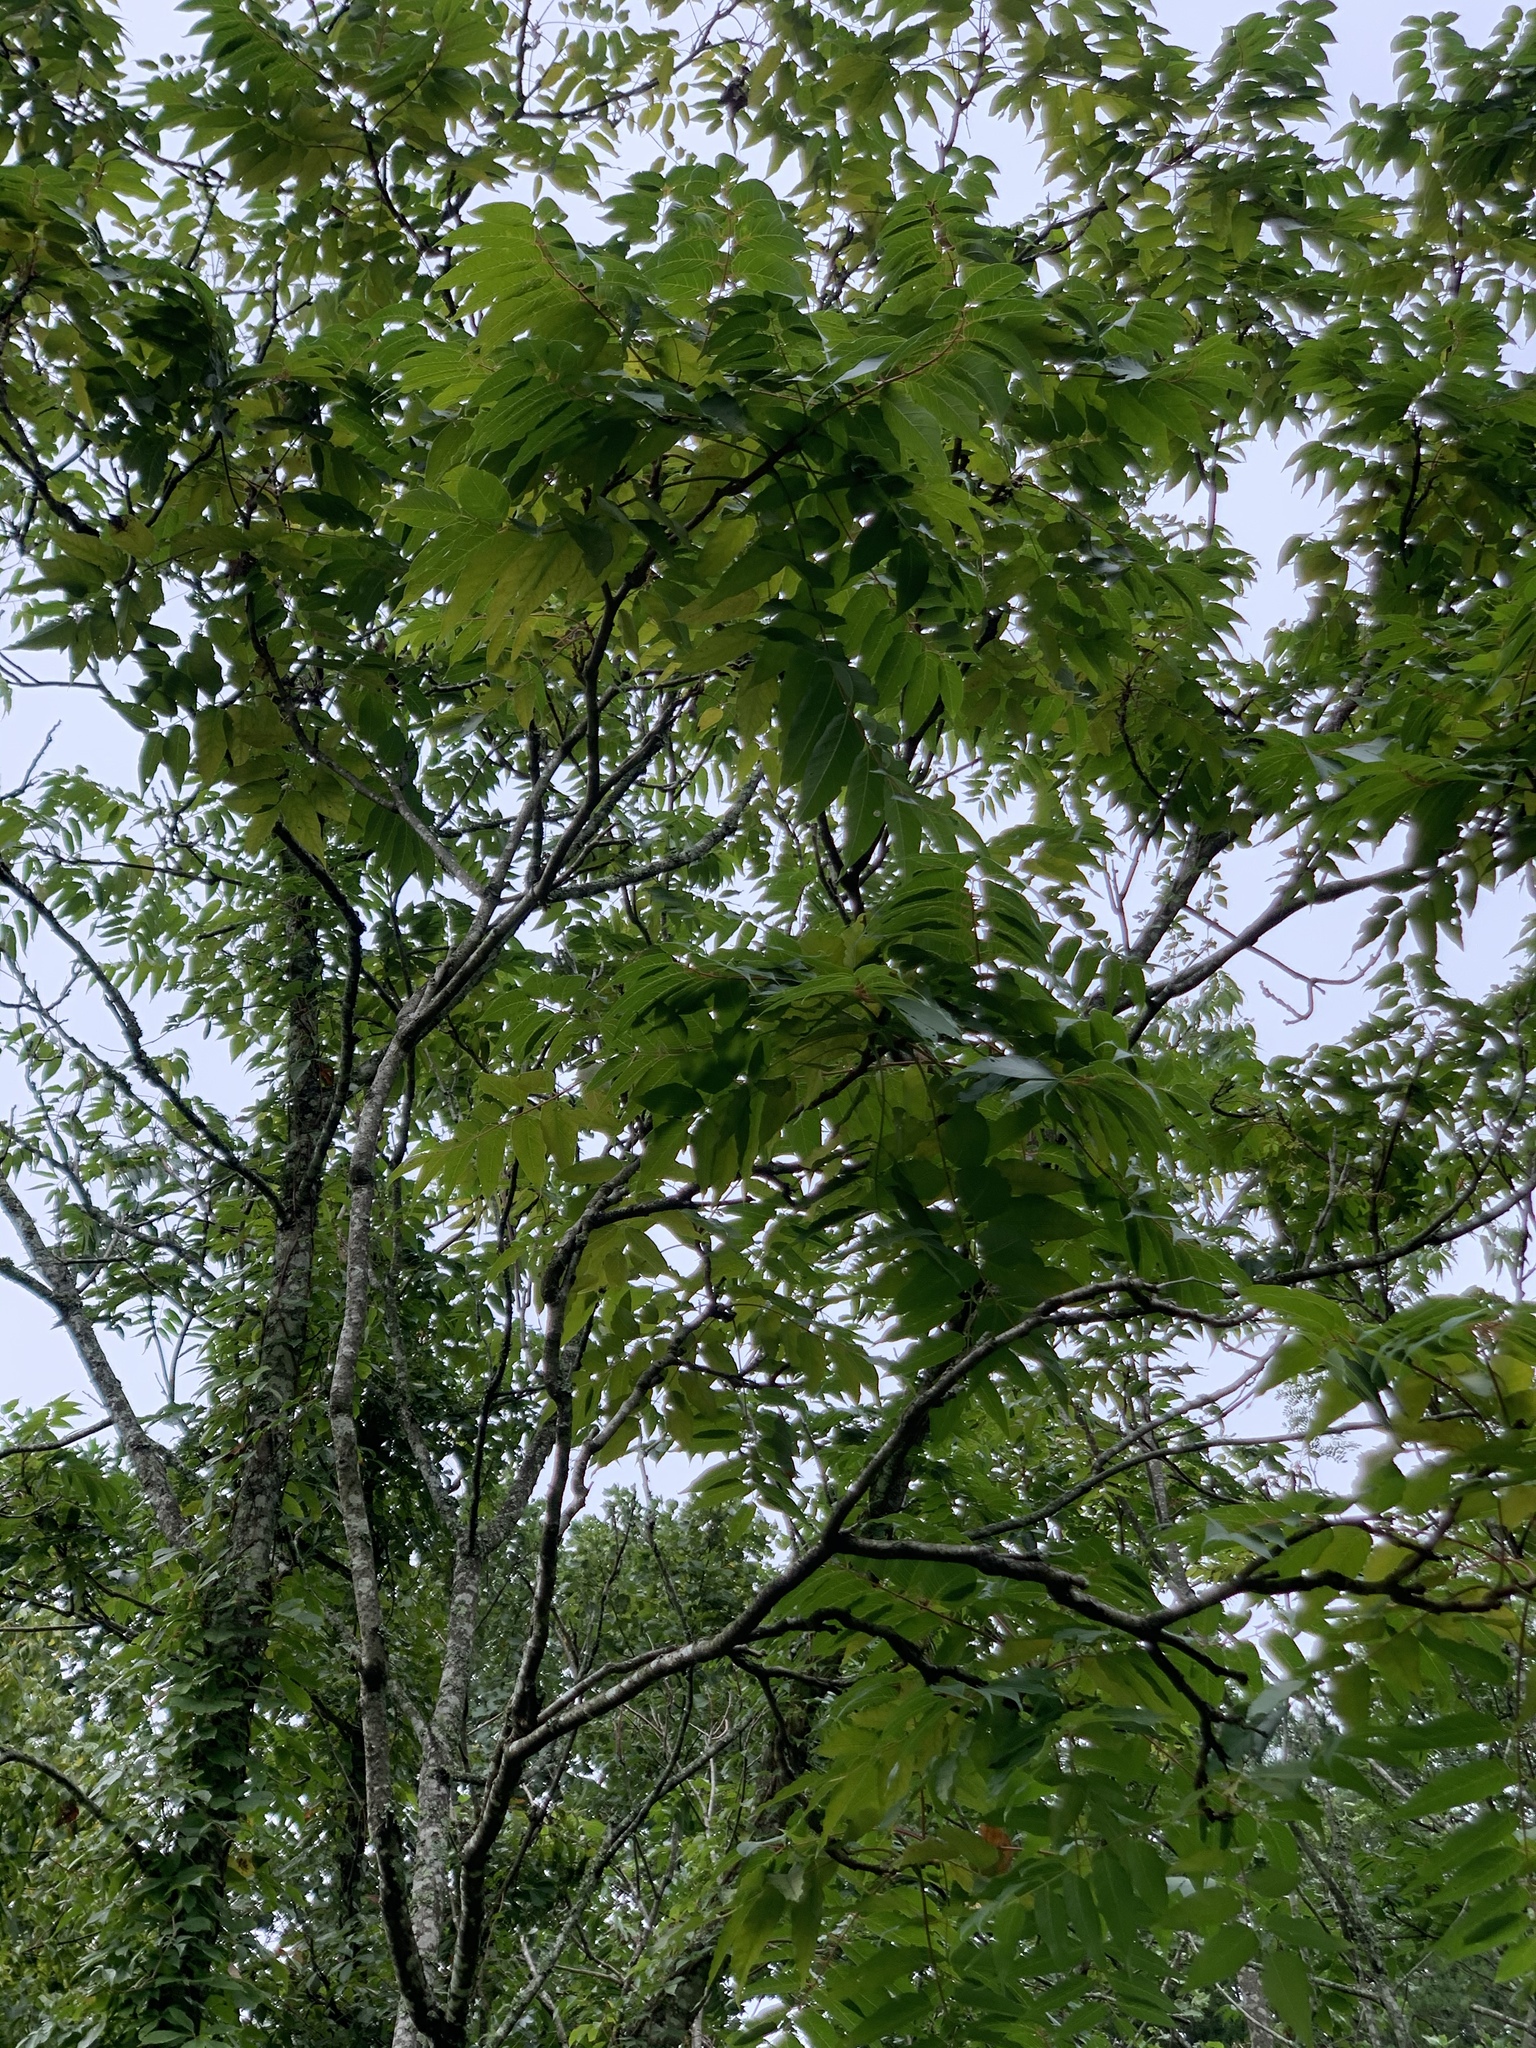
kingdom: Plantae
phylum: Tracheophyta
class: Magnoliopsida
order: Sapindales
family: Simaroubaceae
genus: Ailanthus
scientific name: Ailanthus altissima
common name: Tree-of-heaven
